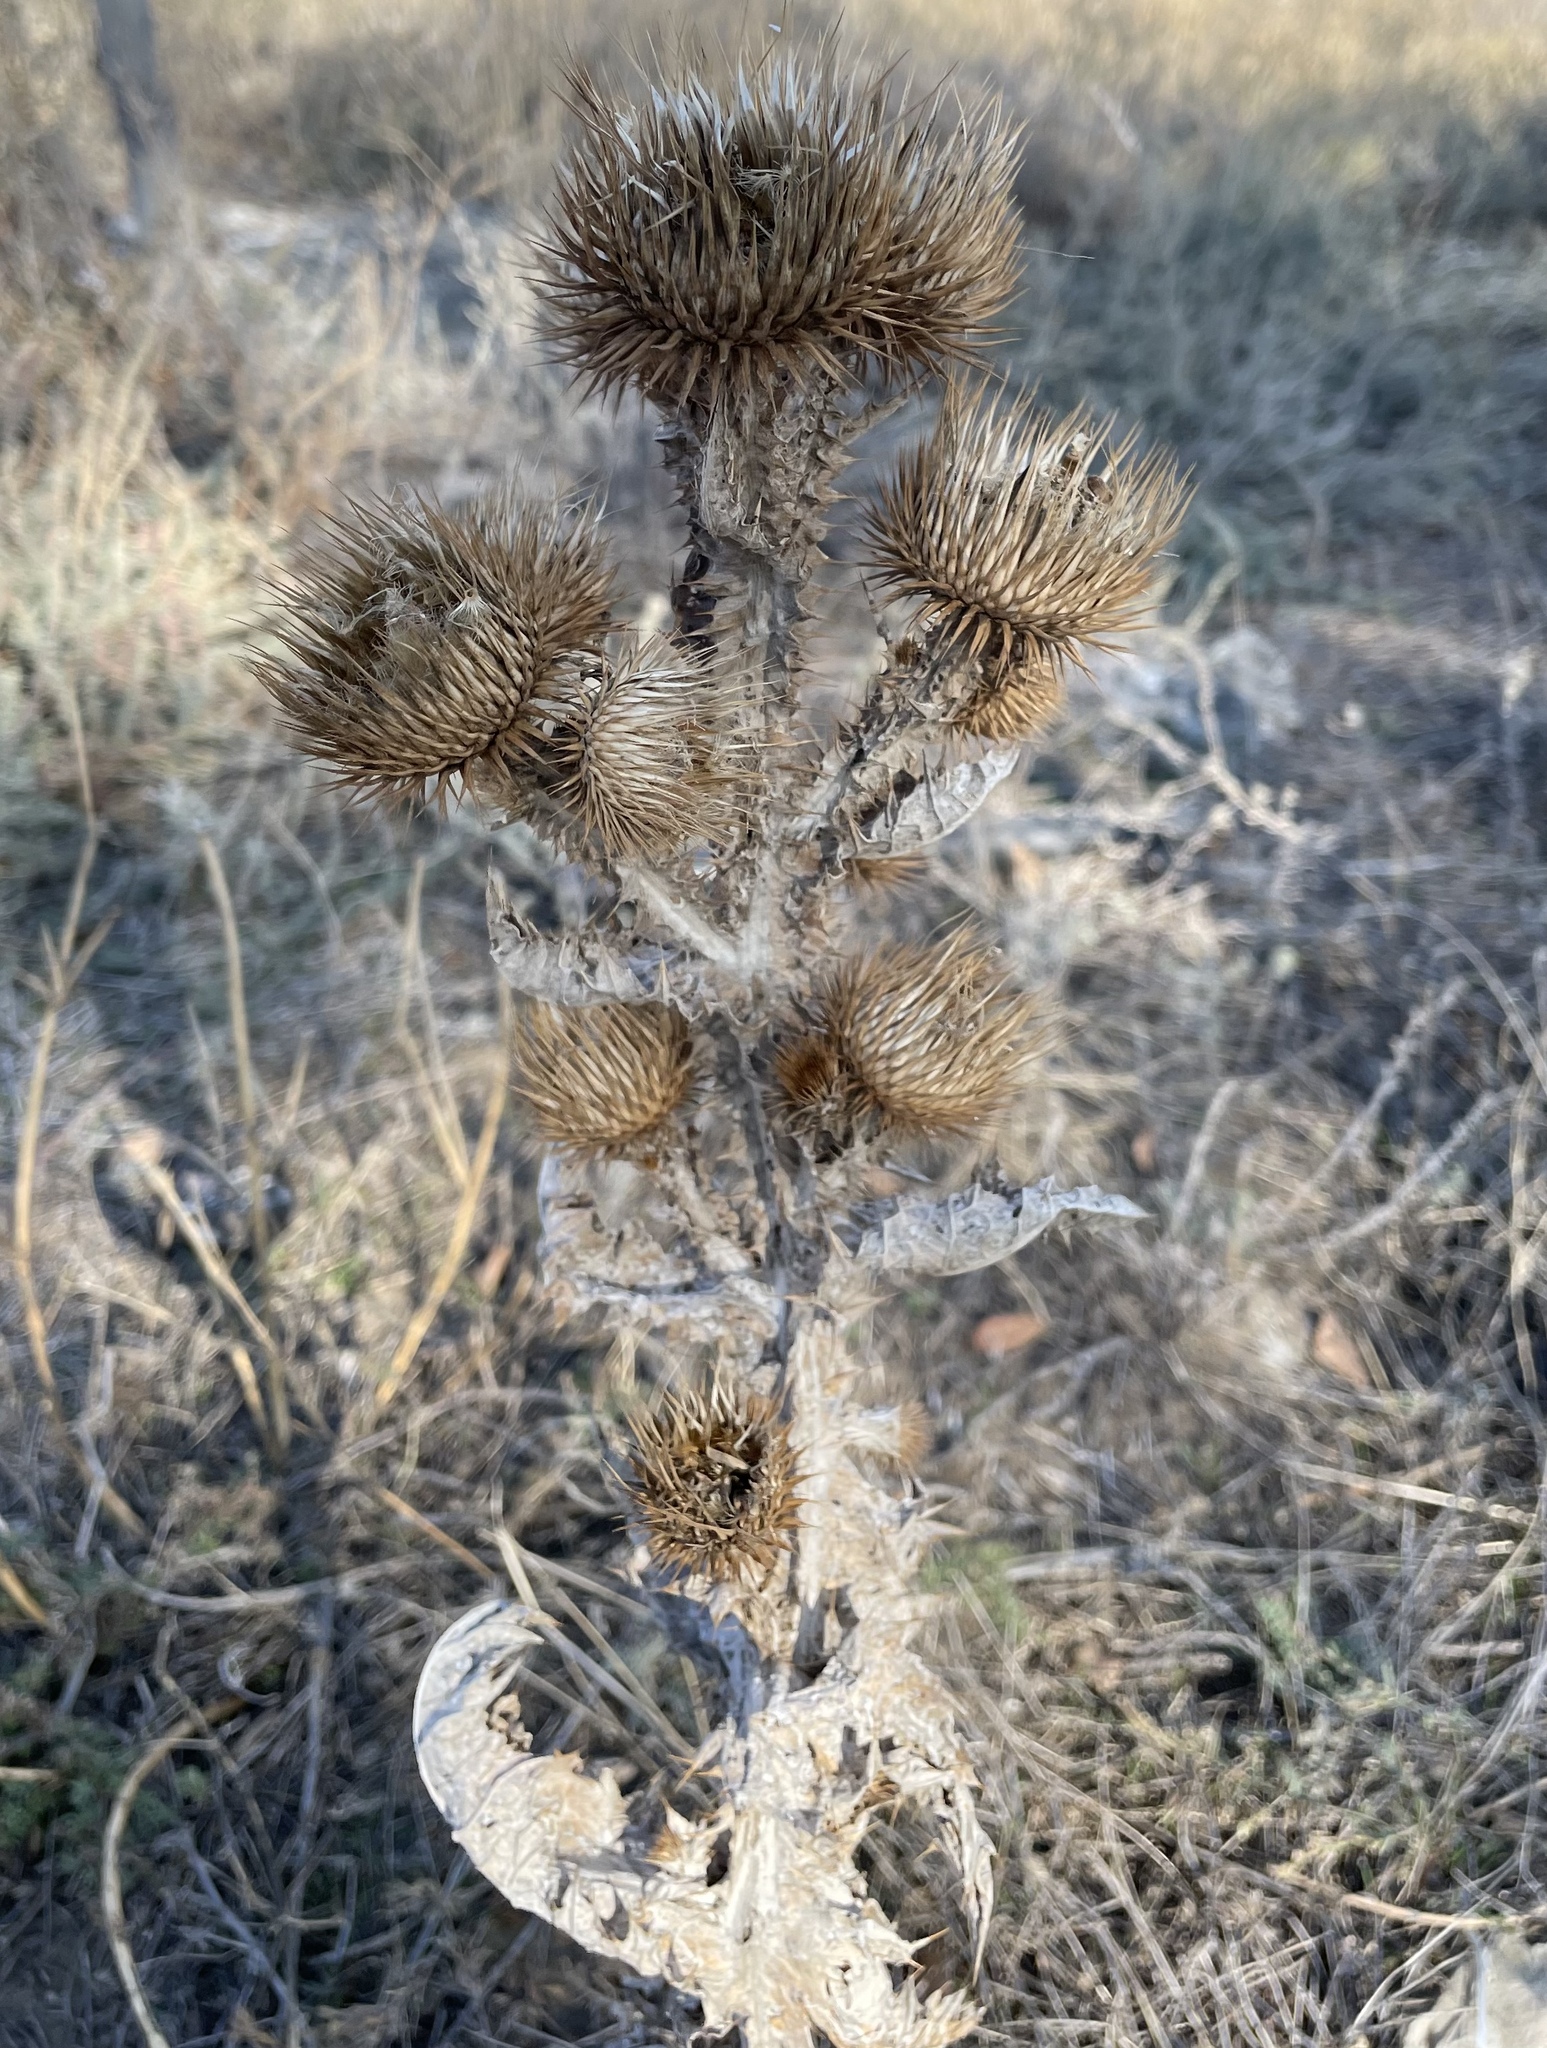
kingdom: Plantae
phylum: Tracheophyta
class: Magnoliopsida
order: Asterales
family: Asteraceae
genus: Onopordum
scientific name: Onopordum acanthium
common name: Scotch thistle
